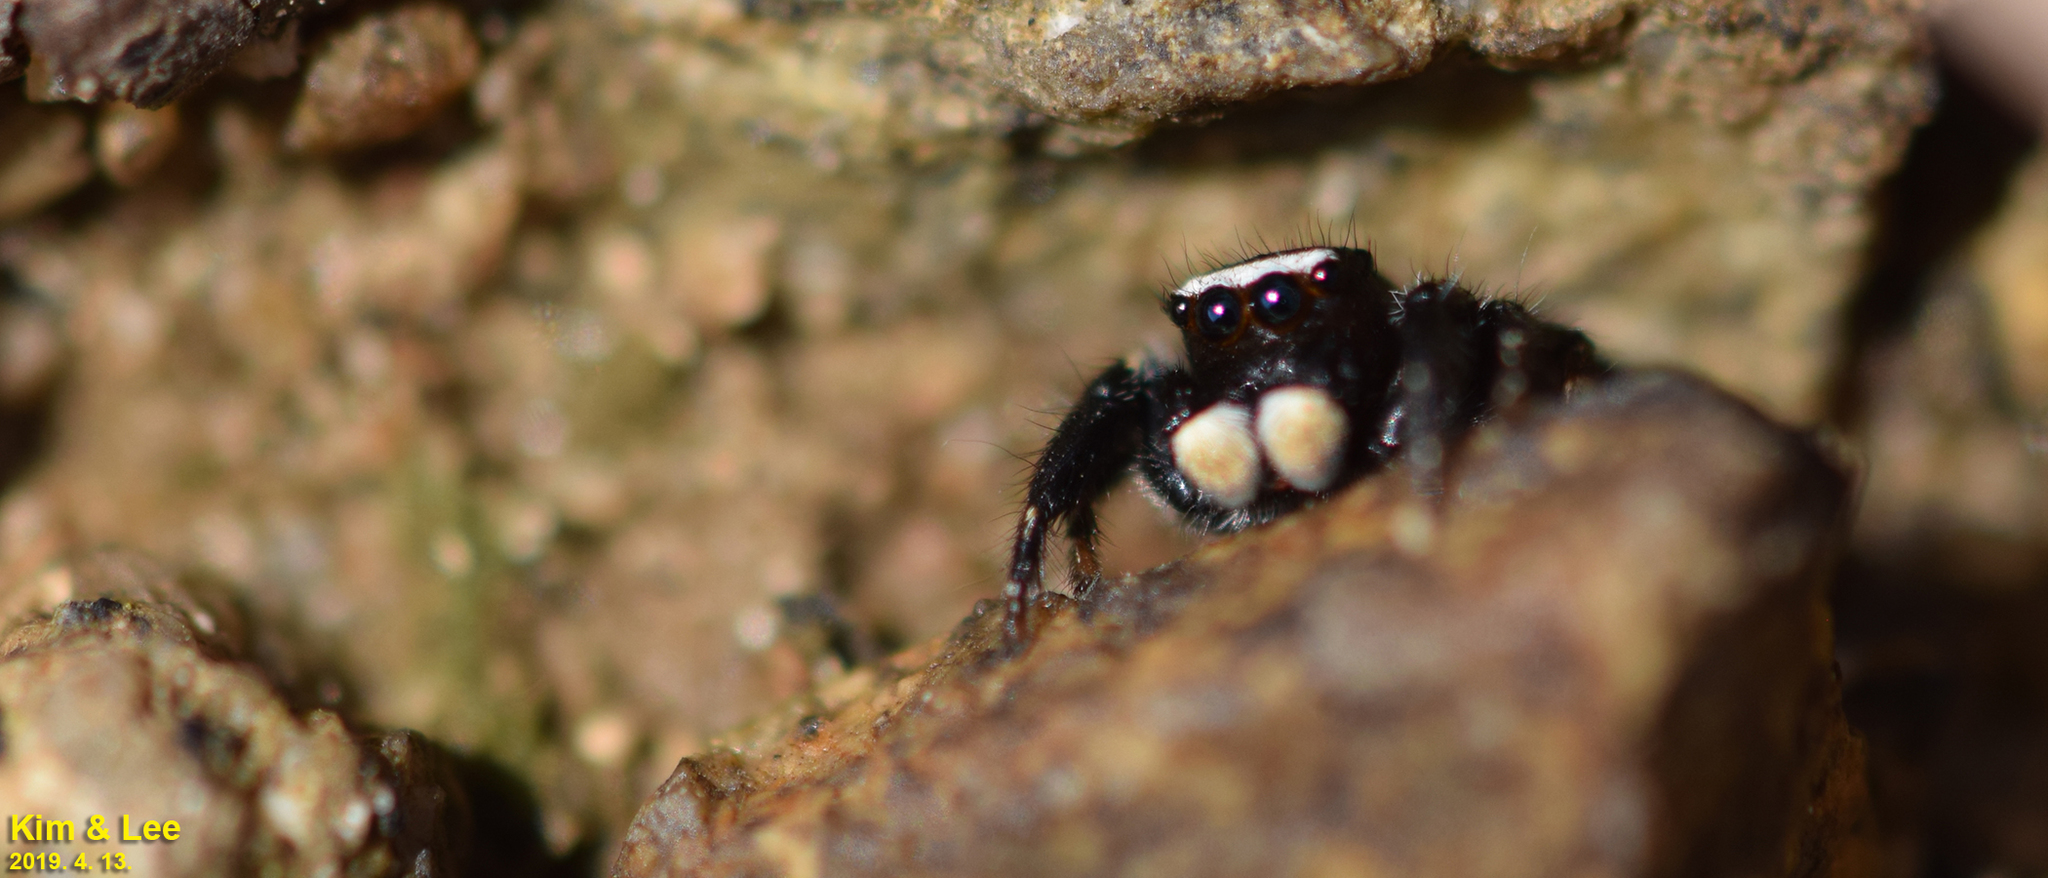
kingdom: Animalia
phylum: Arthropoda
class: Arachnida
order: Araneae
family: Salticidae
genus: Evarcha
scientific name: Evarcha albaria
